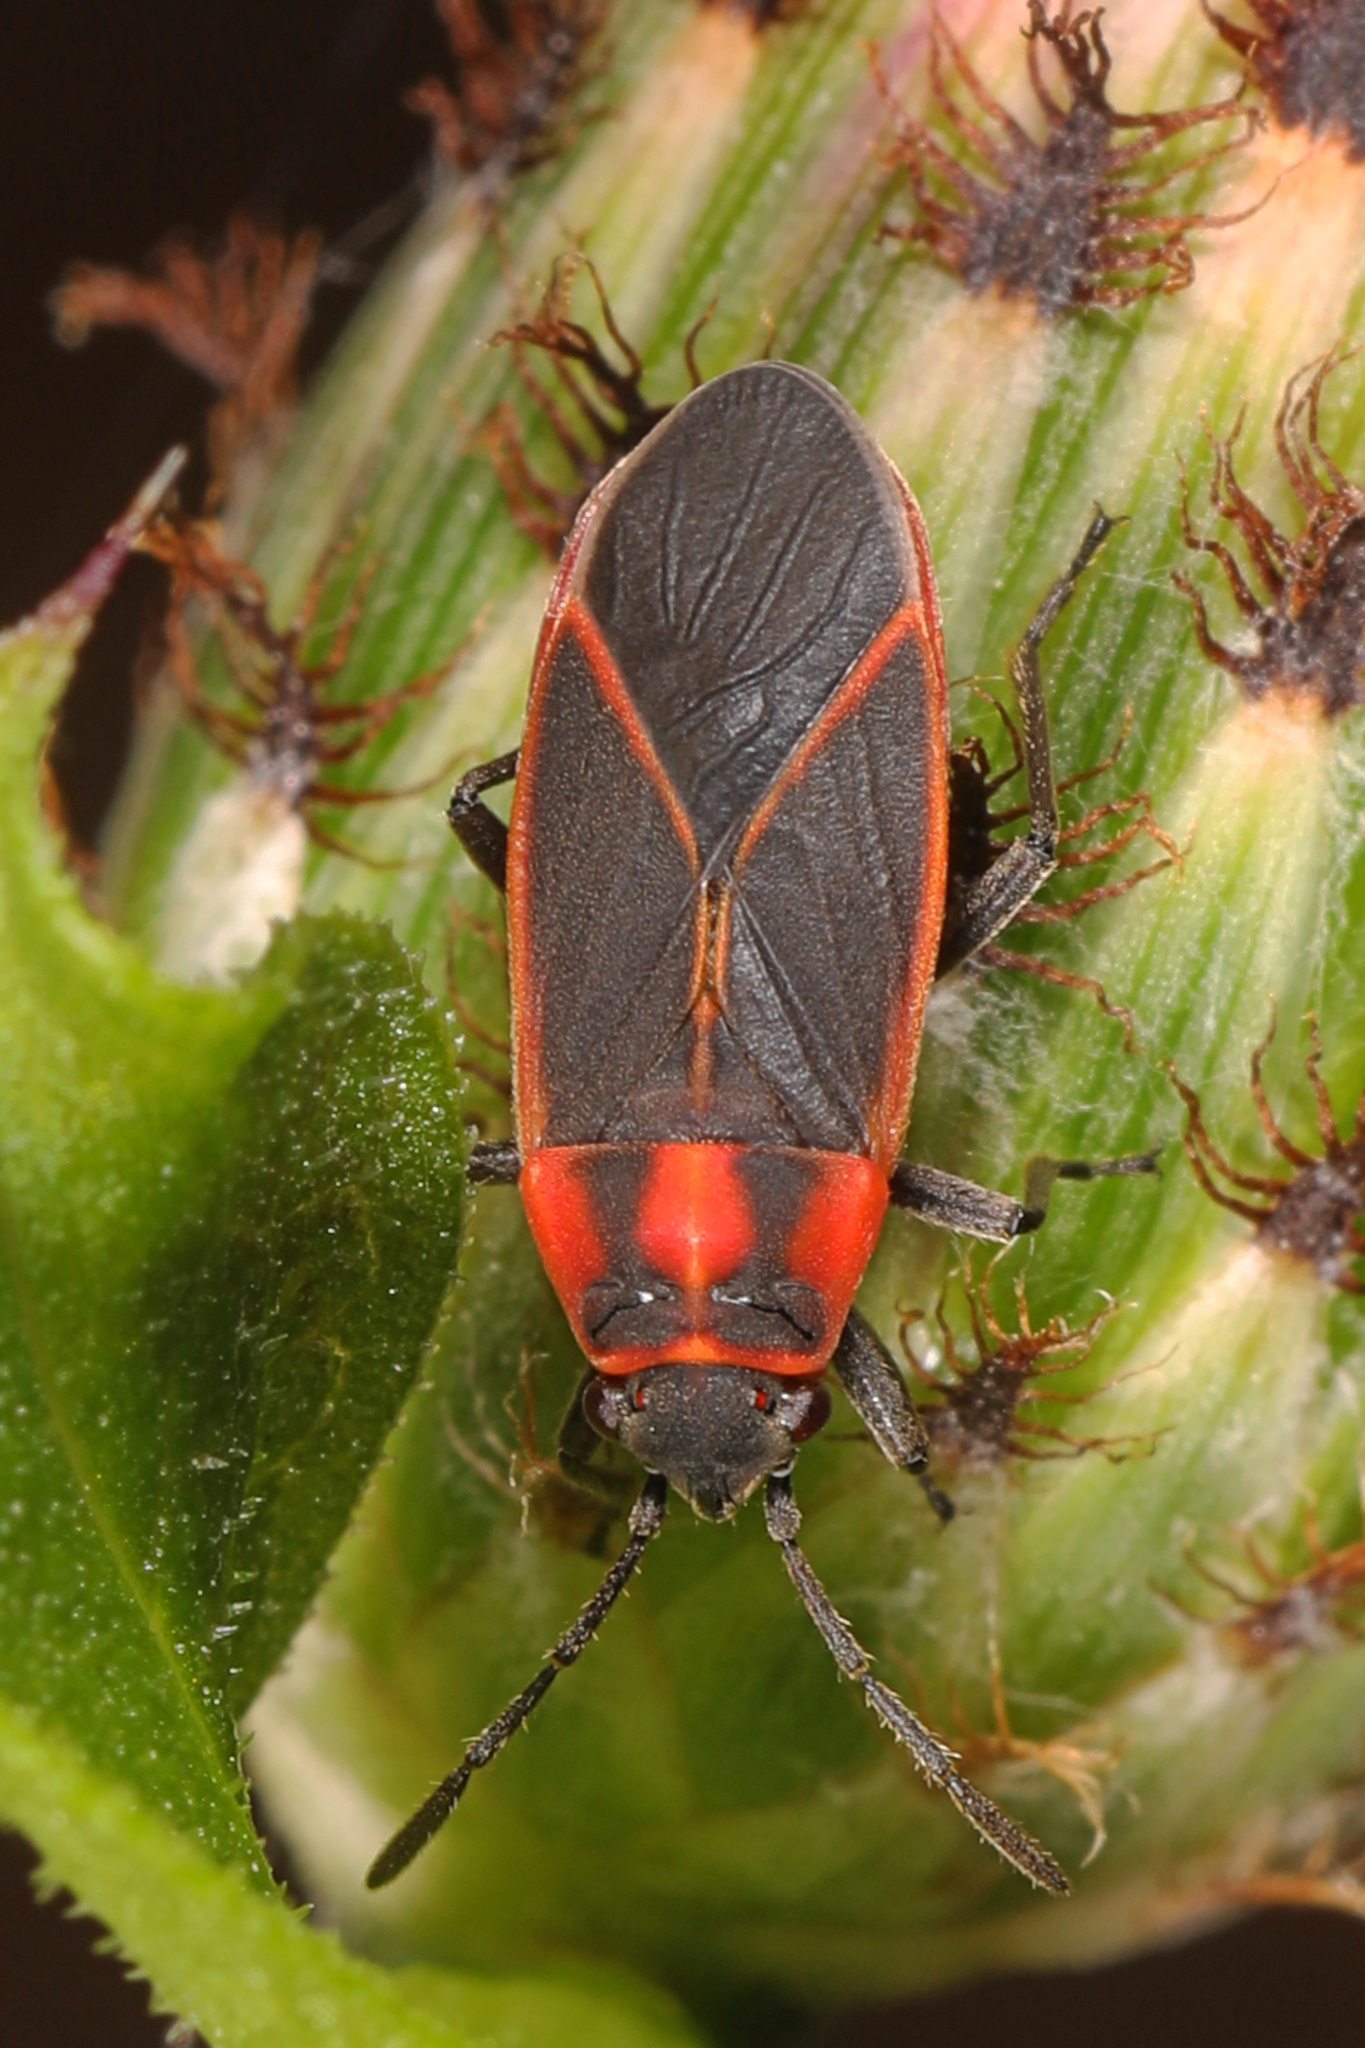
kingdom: Animalia
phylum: Arthropoda
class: Insecta
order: Hemiptera
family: Lygaeidae
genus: Ochrimnus
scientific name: Ochrimnus lineoloides
